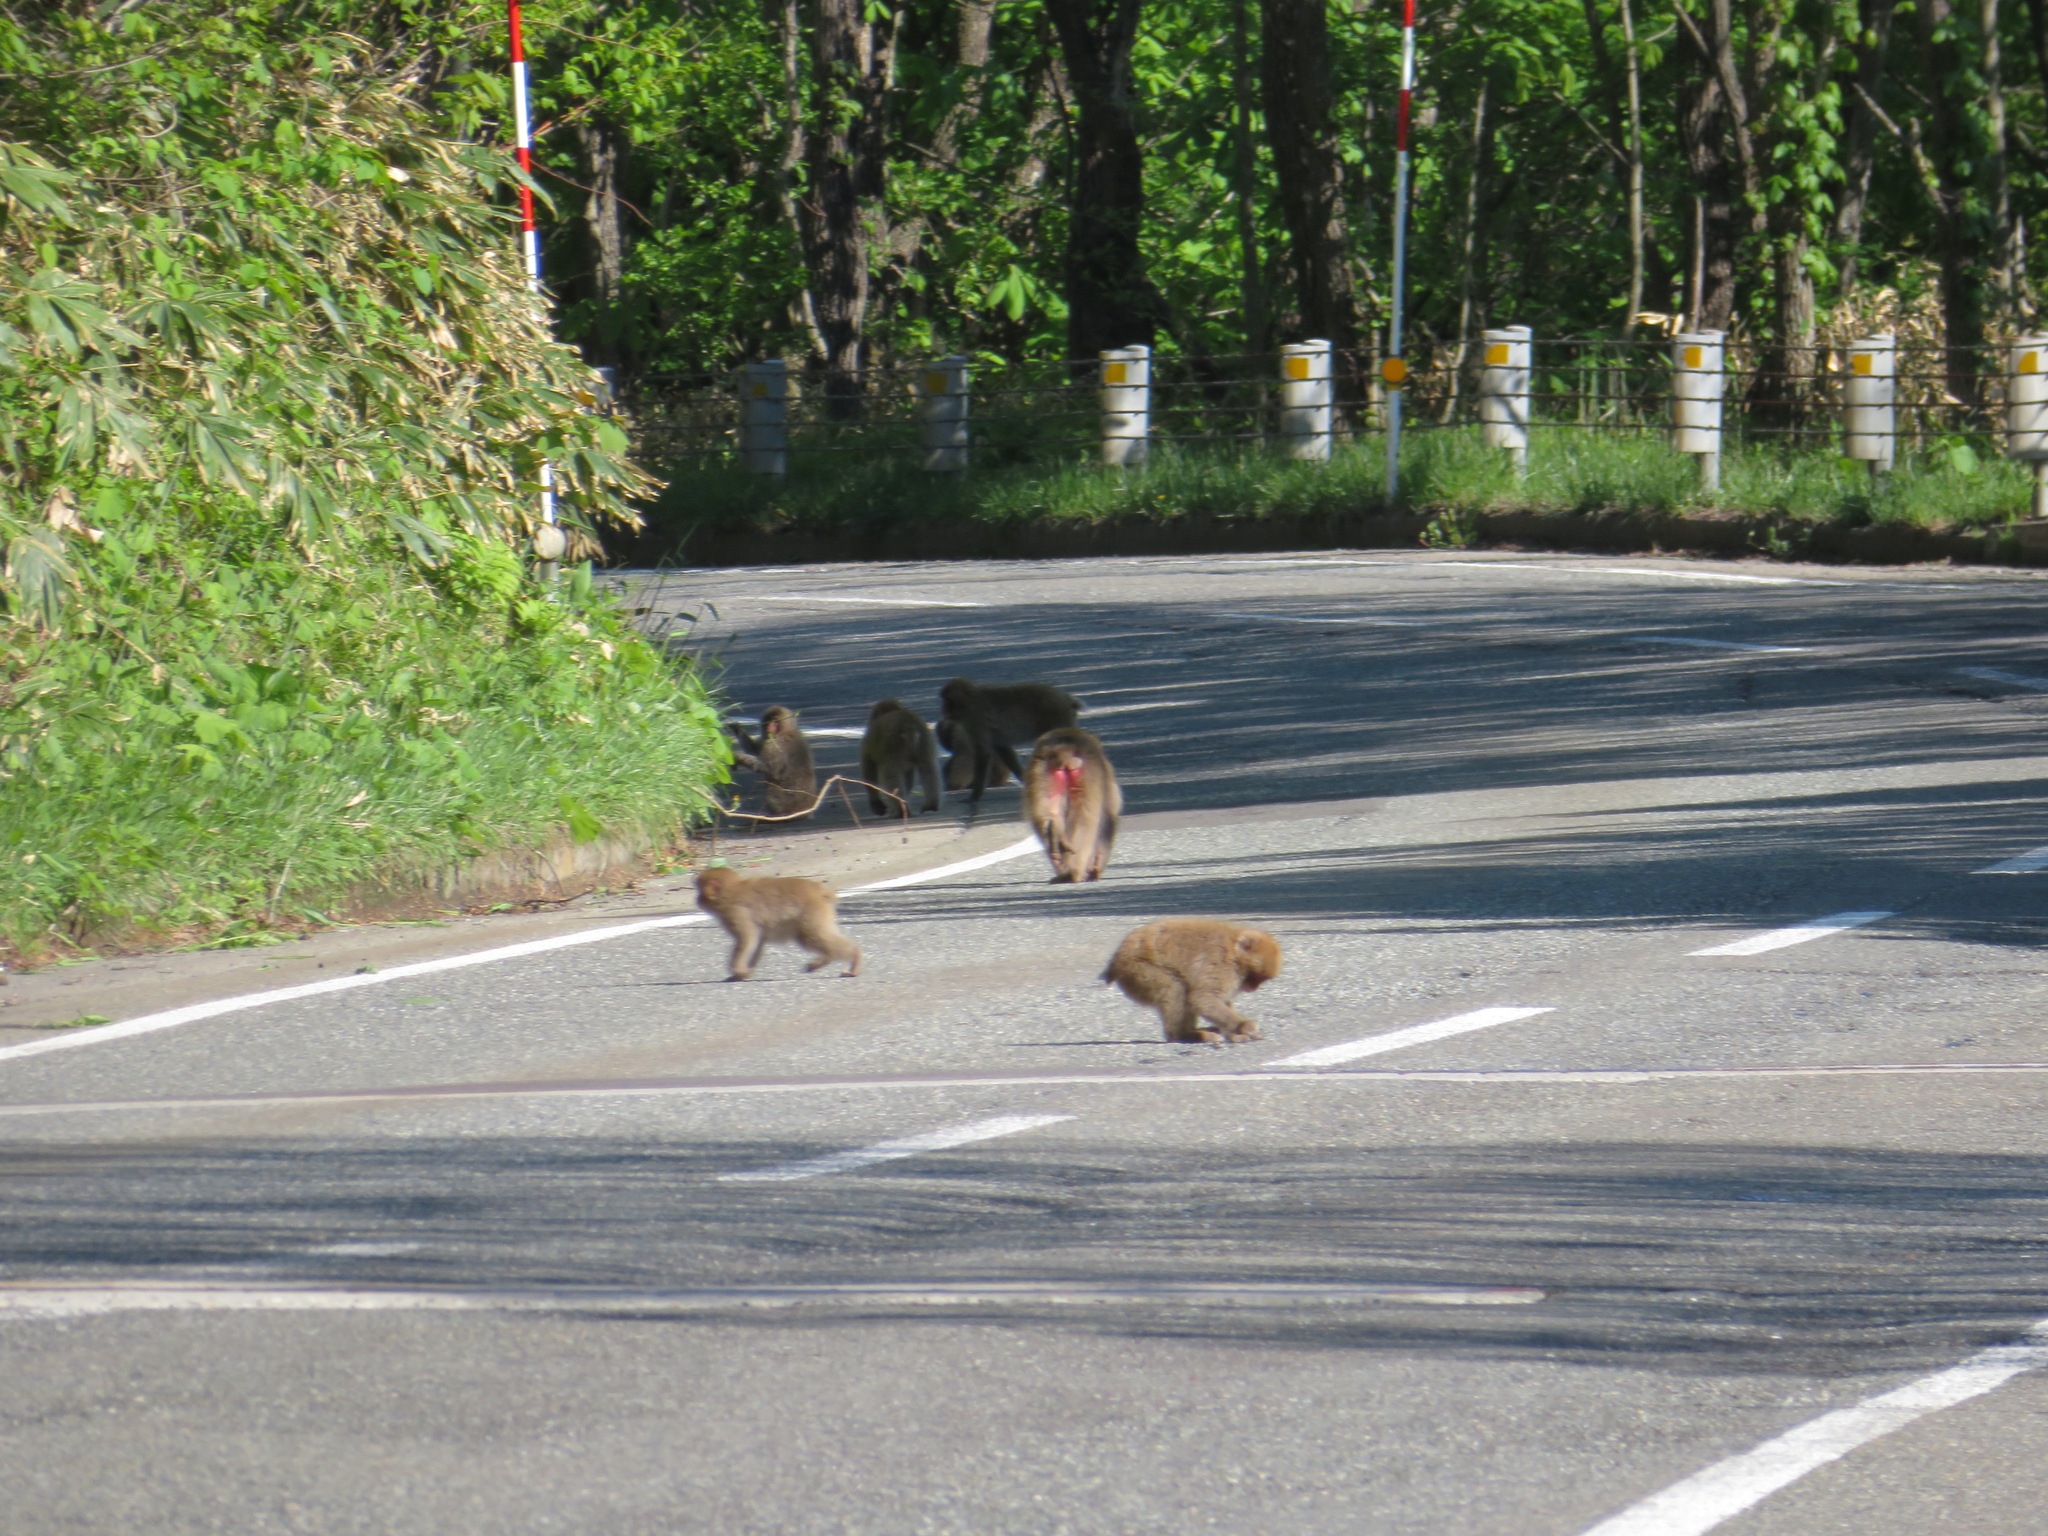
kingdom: Animalia
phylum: Chordata
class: Mammalia
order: Primates
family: Cercopithecidae
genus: Macaca
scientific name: Macaca fuscata
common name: Japanese macaque
